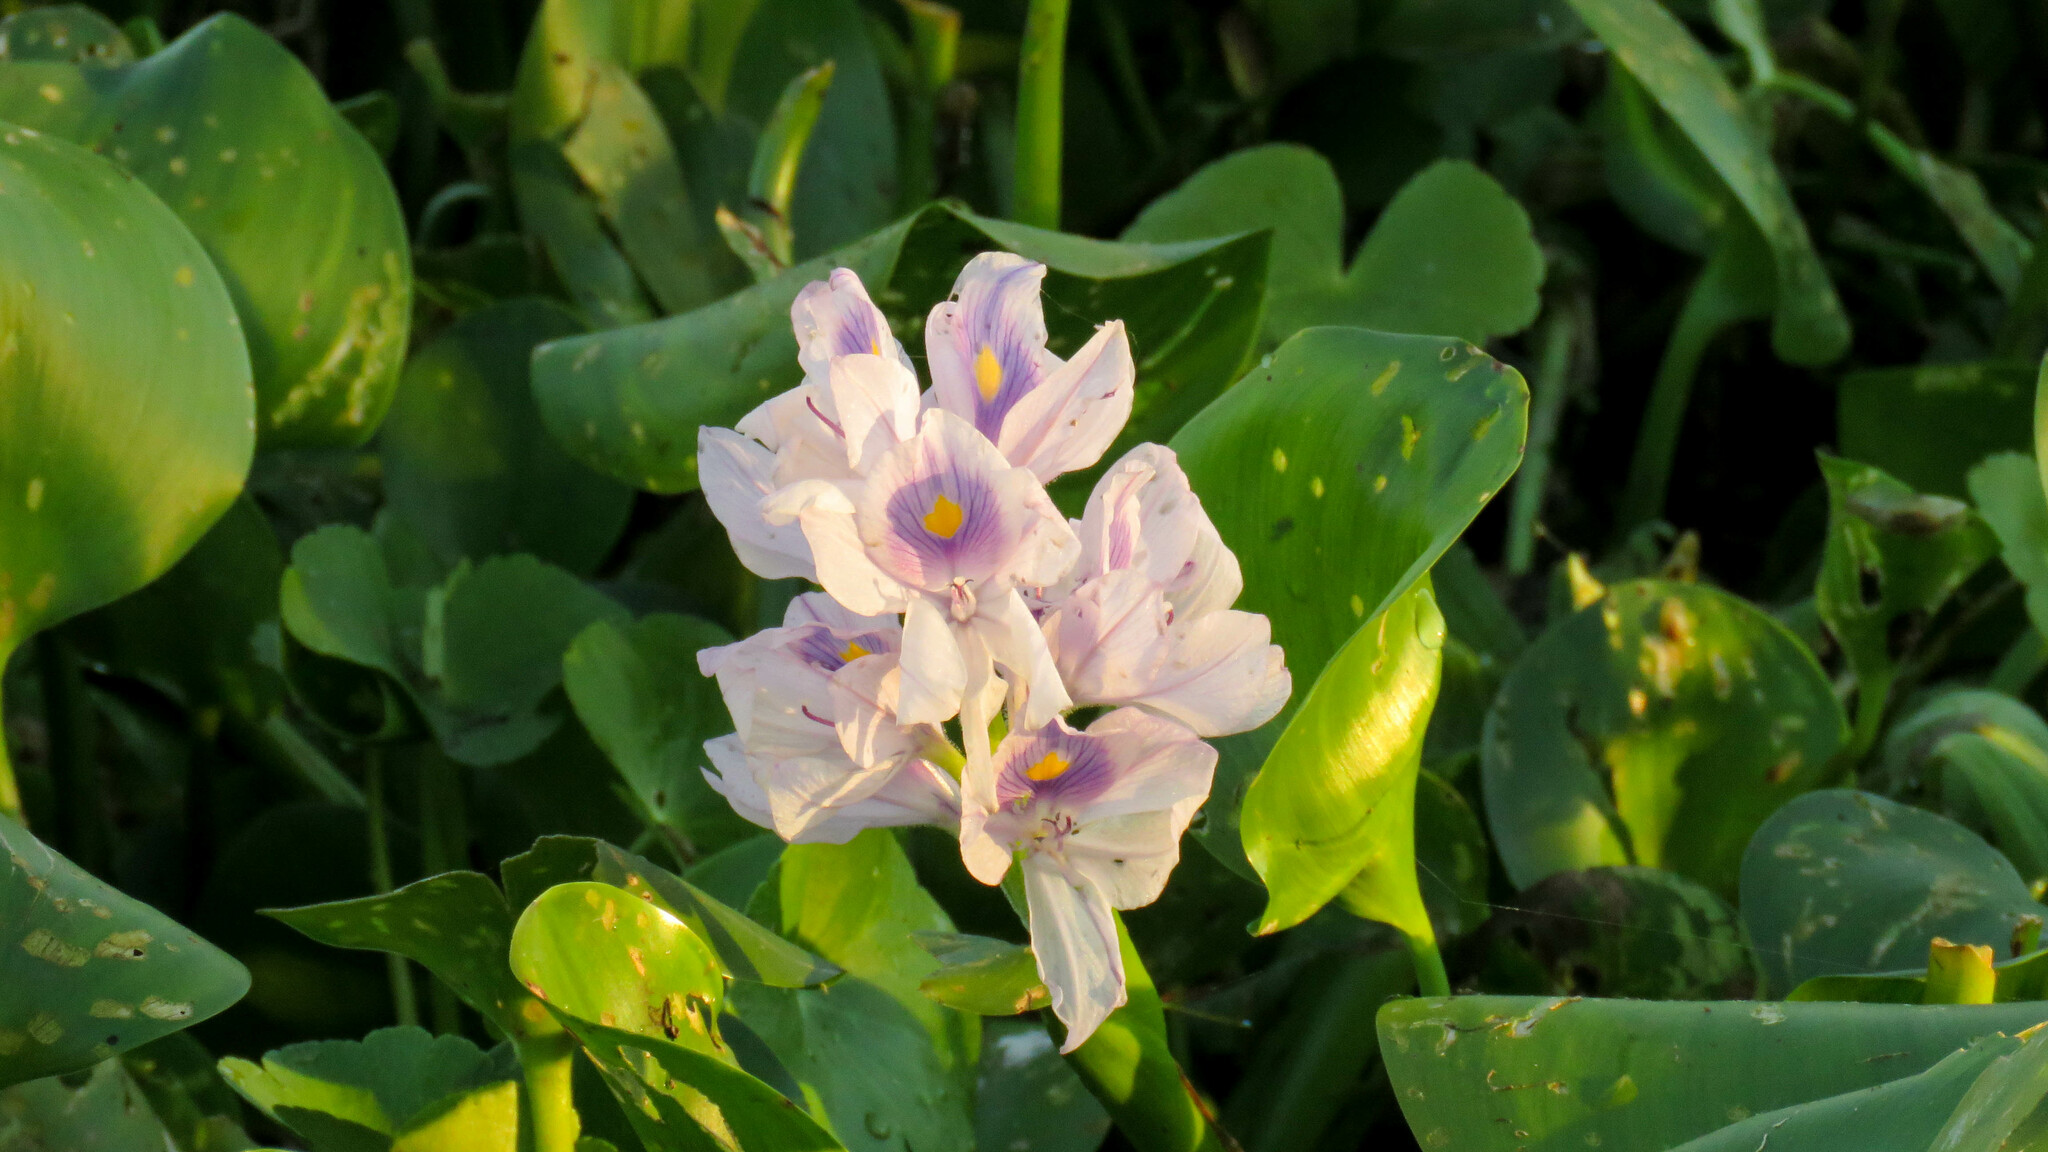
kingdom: Plantae
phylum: Tracheophyta
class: Liliopsida
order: Commelinales
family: Pontederiaceae
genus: Pontederia
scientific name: Pontederia crassipes
